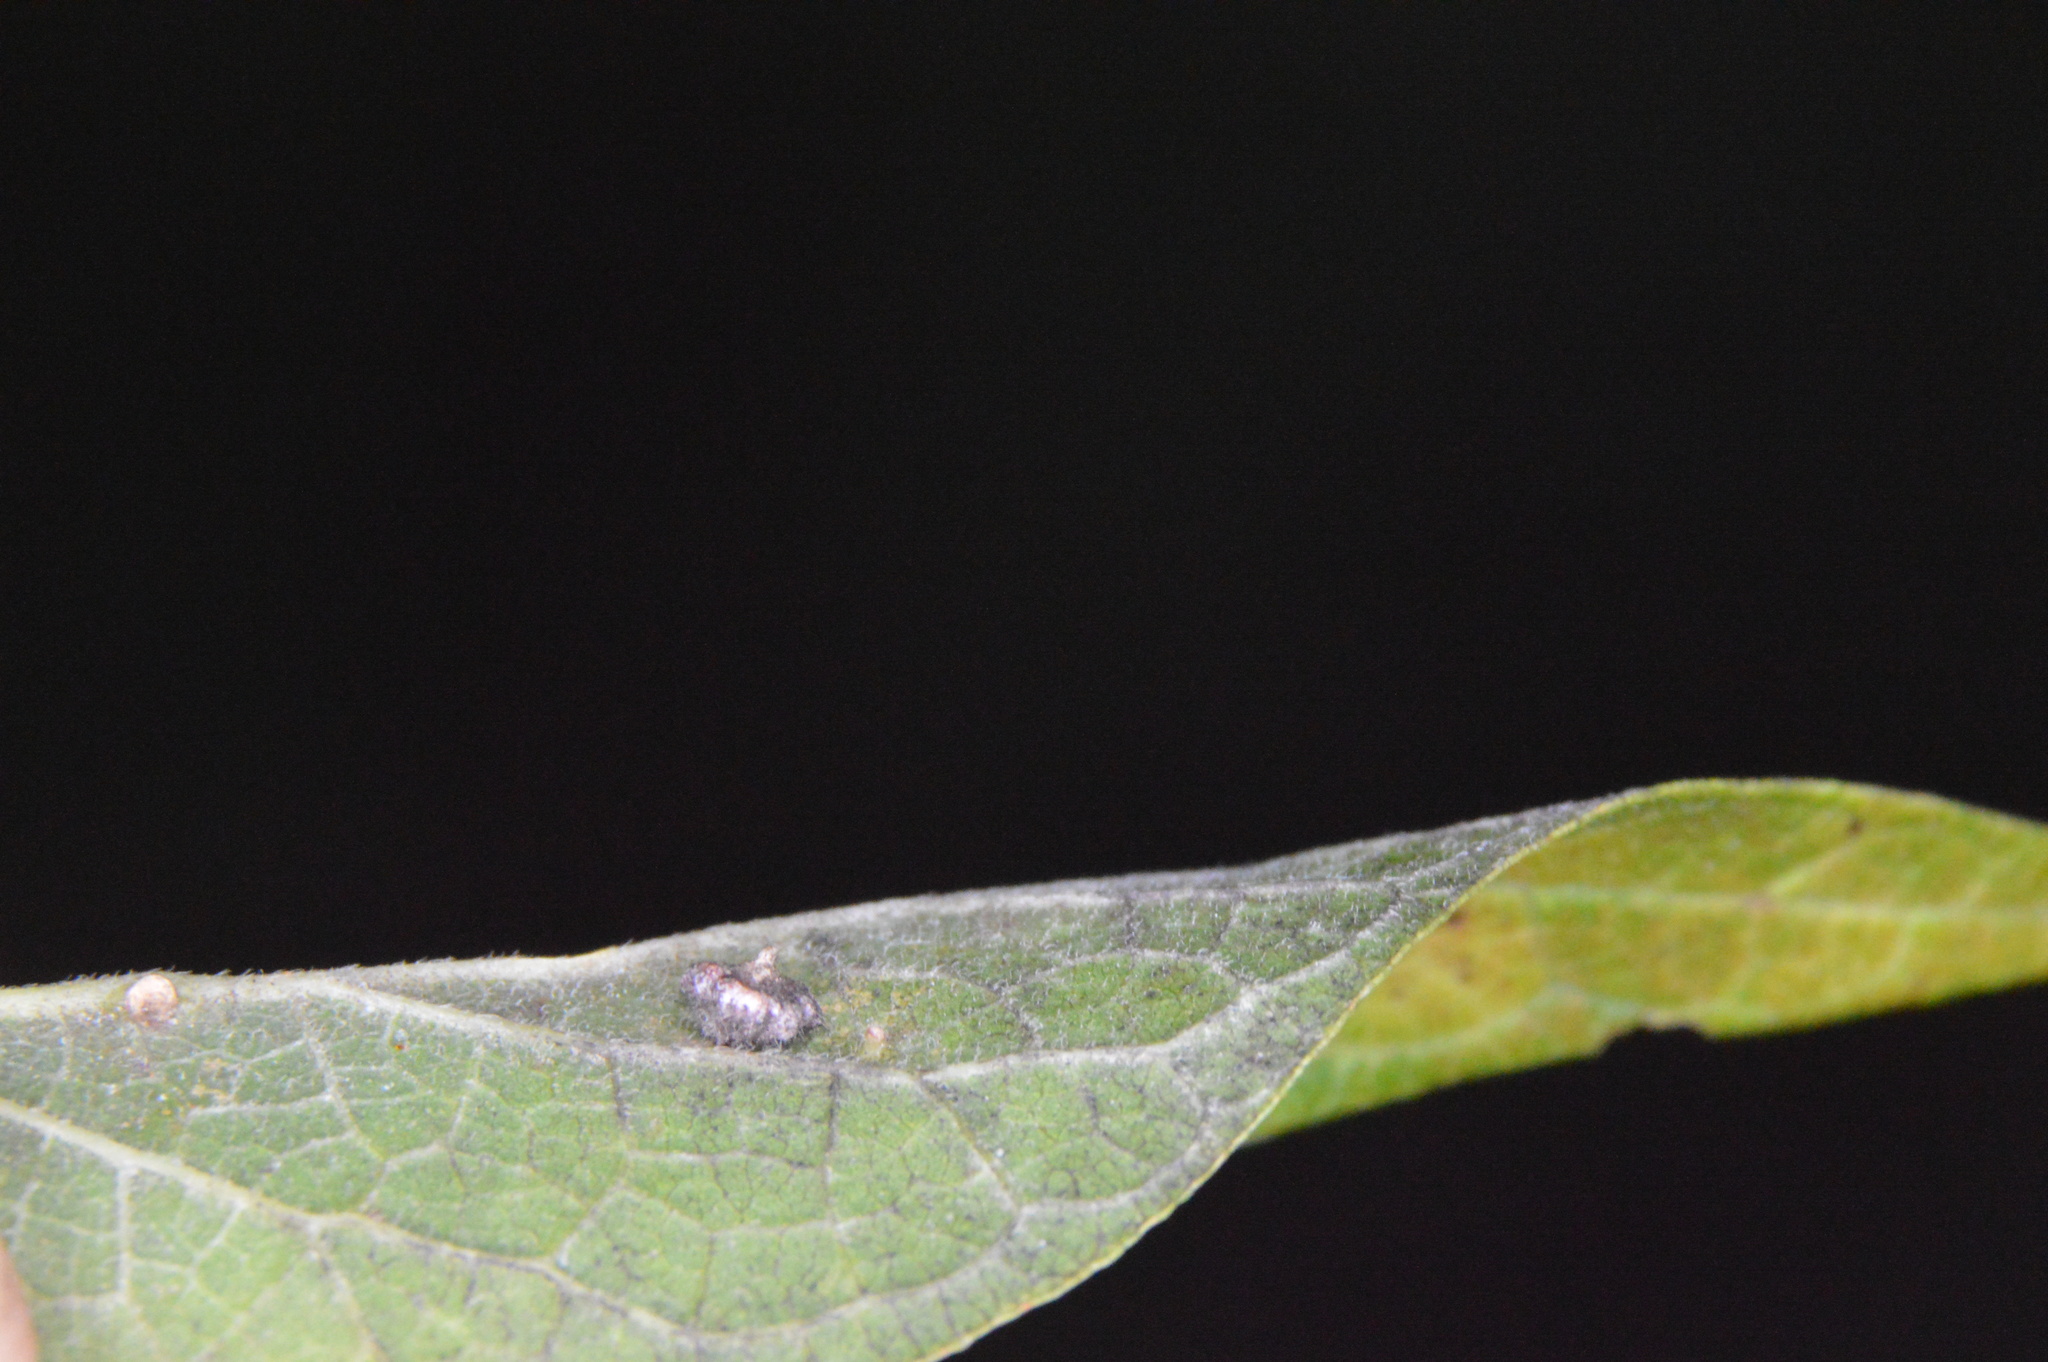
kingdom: Animalia
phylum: Arthropoda
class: Insecta
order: Diptera
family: Cecidomyiidae
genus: Celticecis
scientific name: Celticecis capsularis
